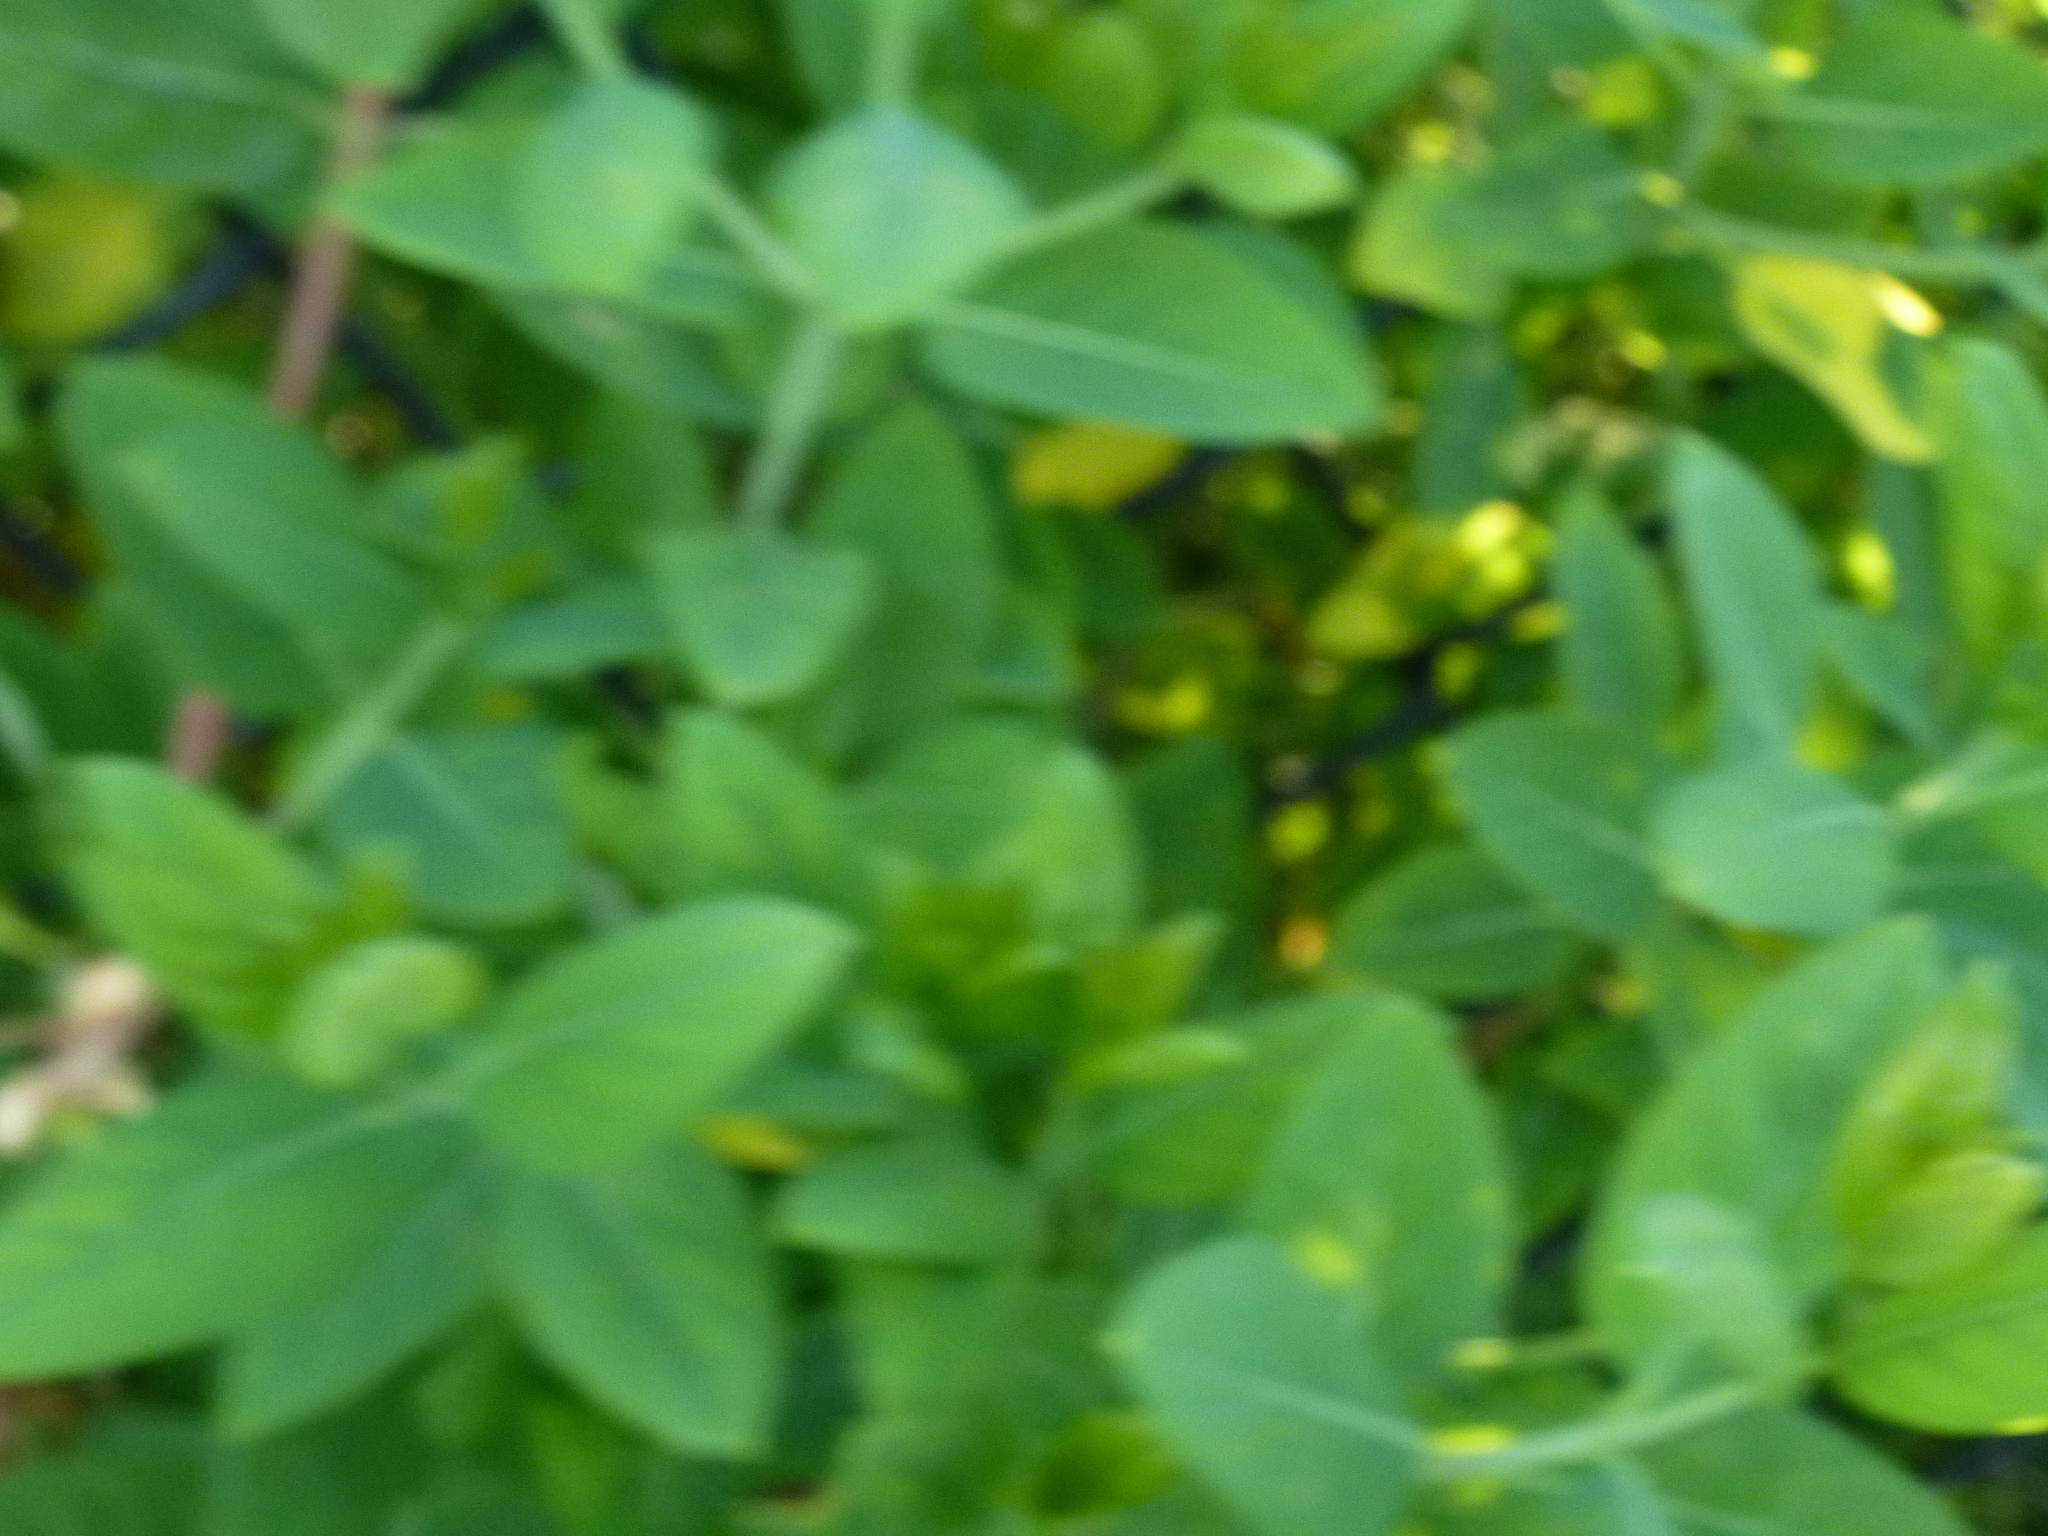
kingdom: Plantae
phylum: Tracheophyta
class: Magnoliopsida
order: Gentianales
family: Apocynaceae
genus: Apocynum
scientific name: Apocynum cannabinum
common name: Hemp dogbane
